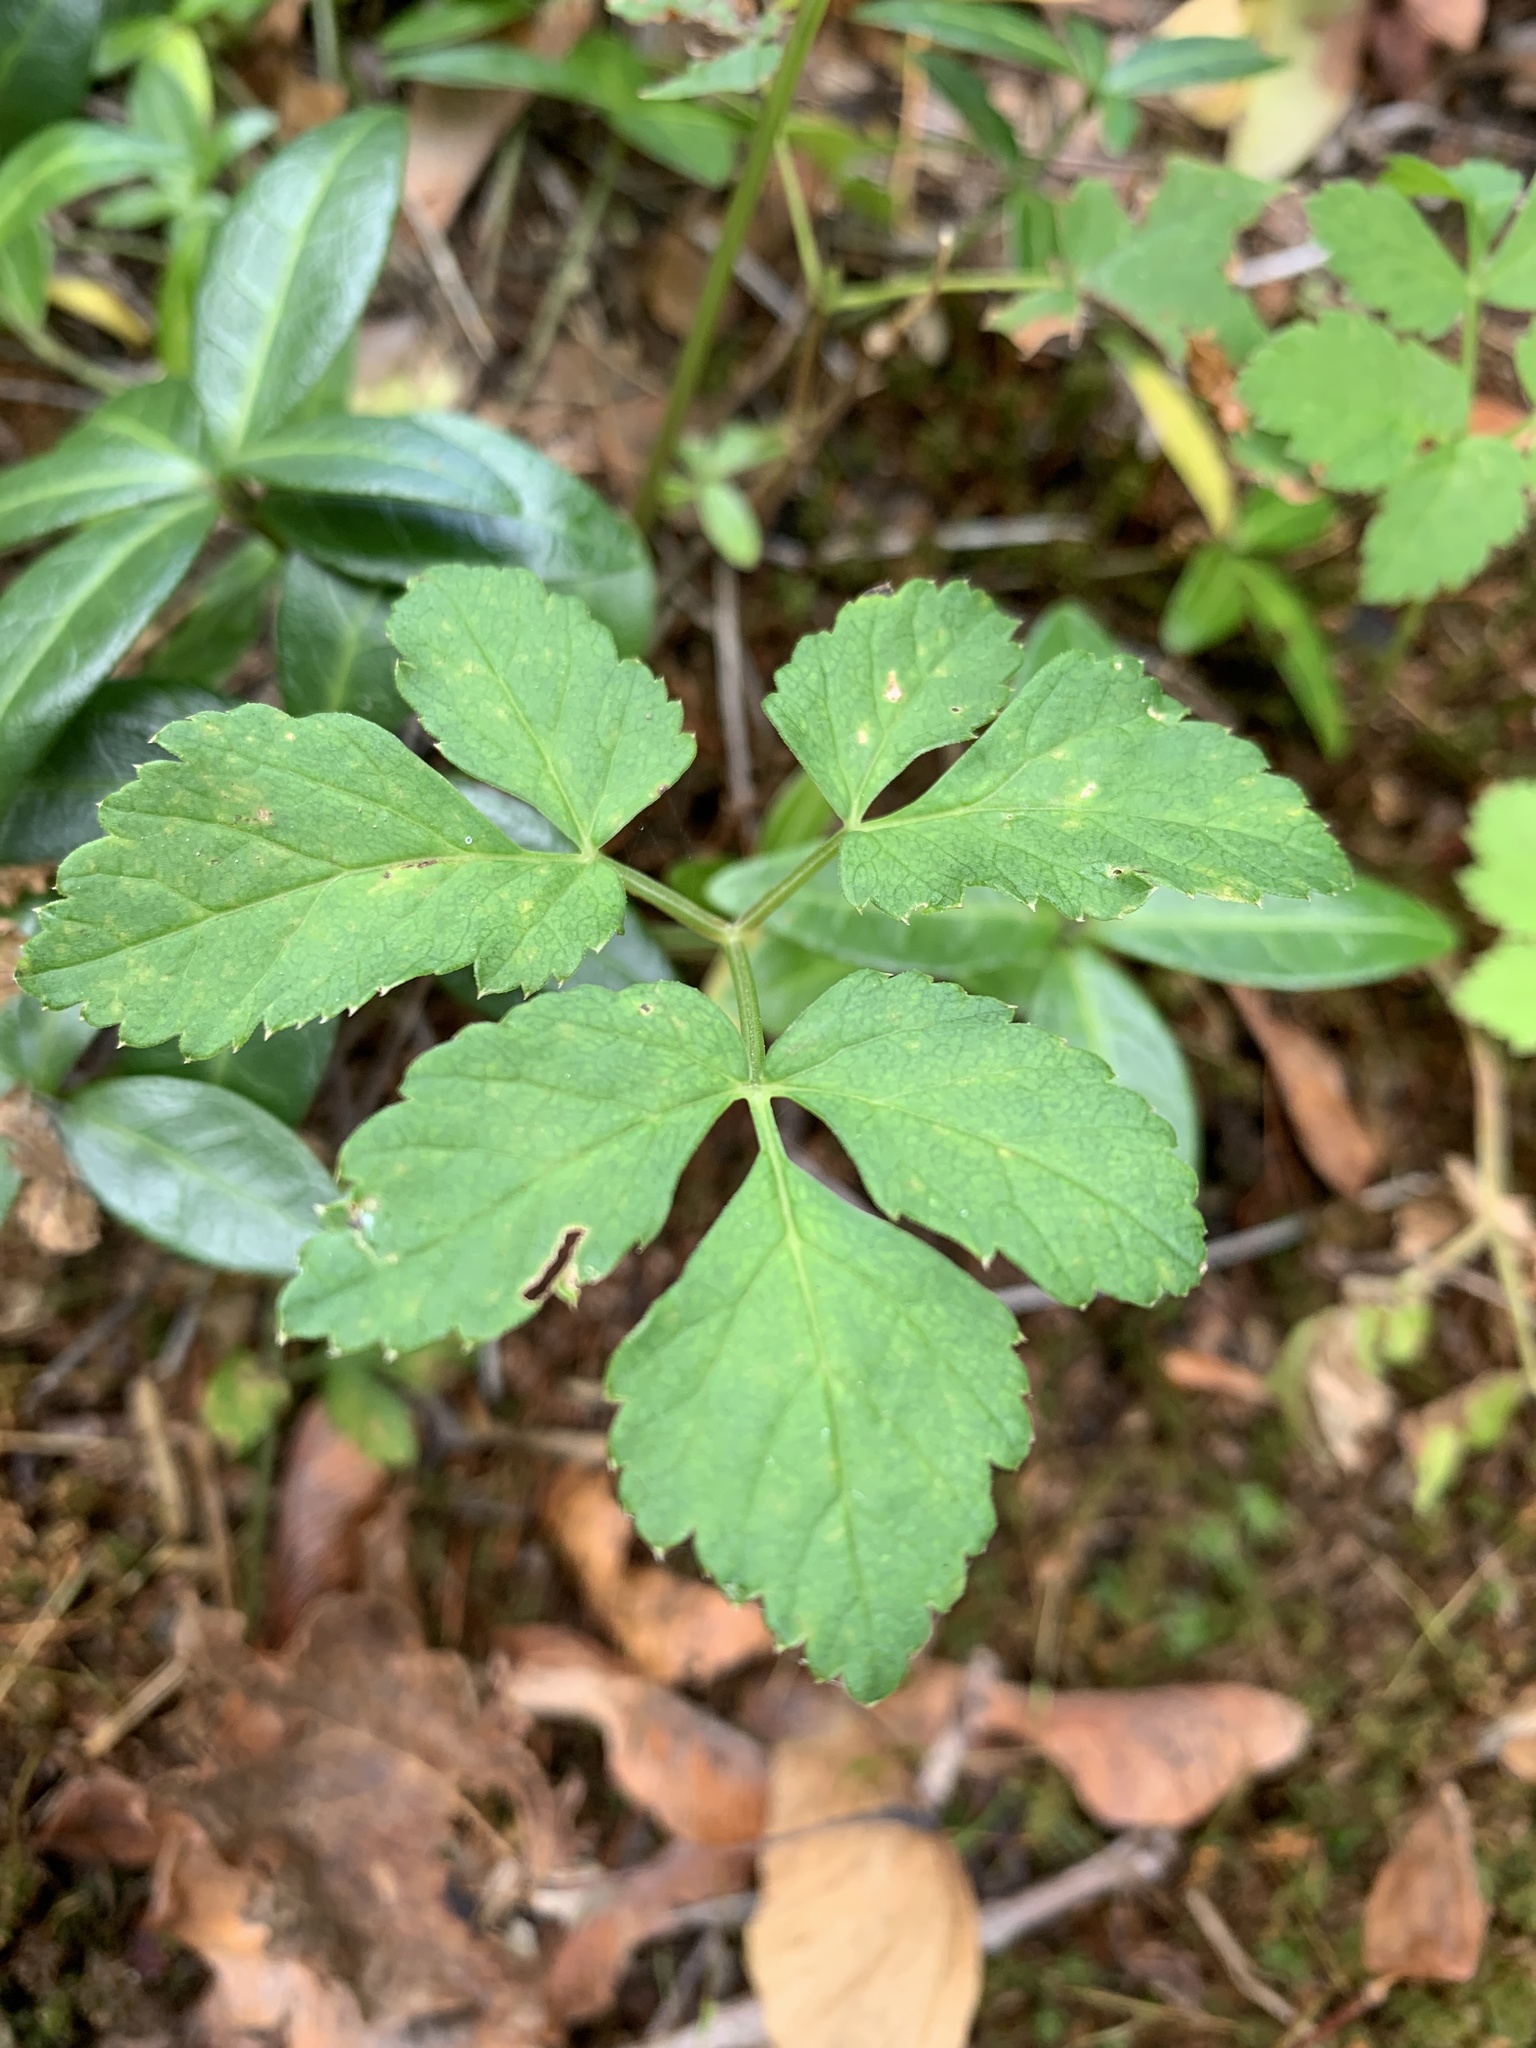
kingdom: Plantae
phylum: Tracheophyta
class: Magnoliopsida
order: Apiales
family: Apiaceae
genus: Aegopodium
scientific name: Aegopodium podagraria
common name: Ground-elder
